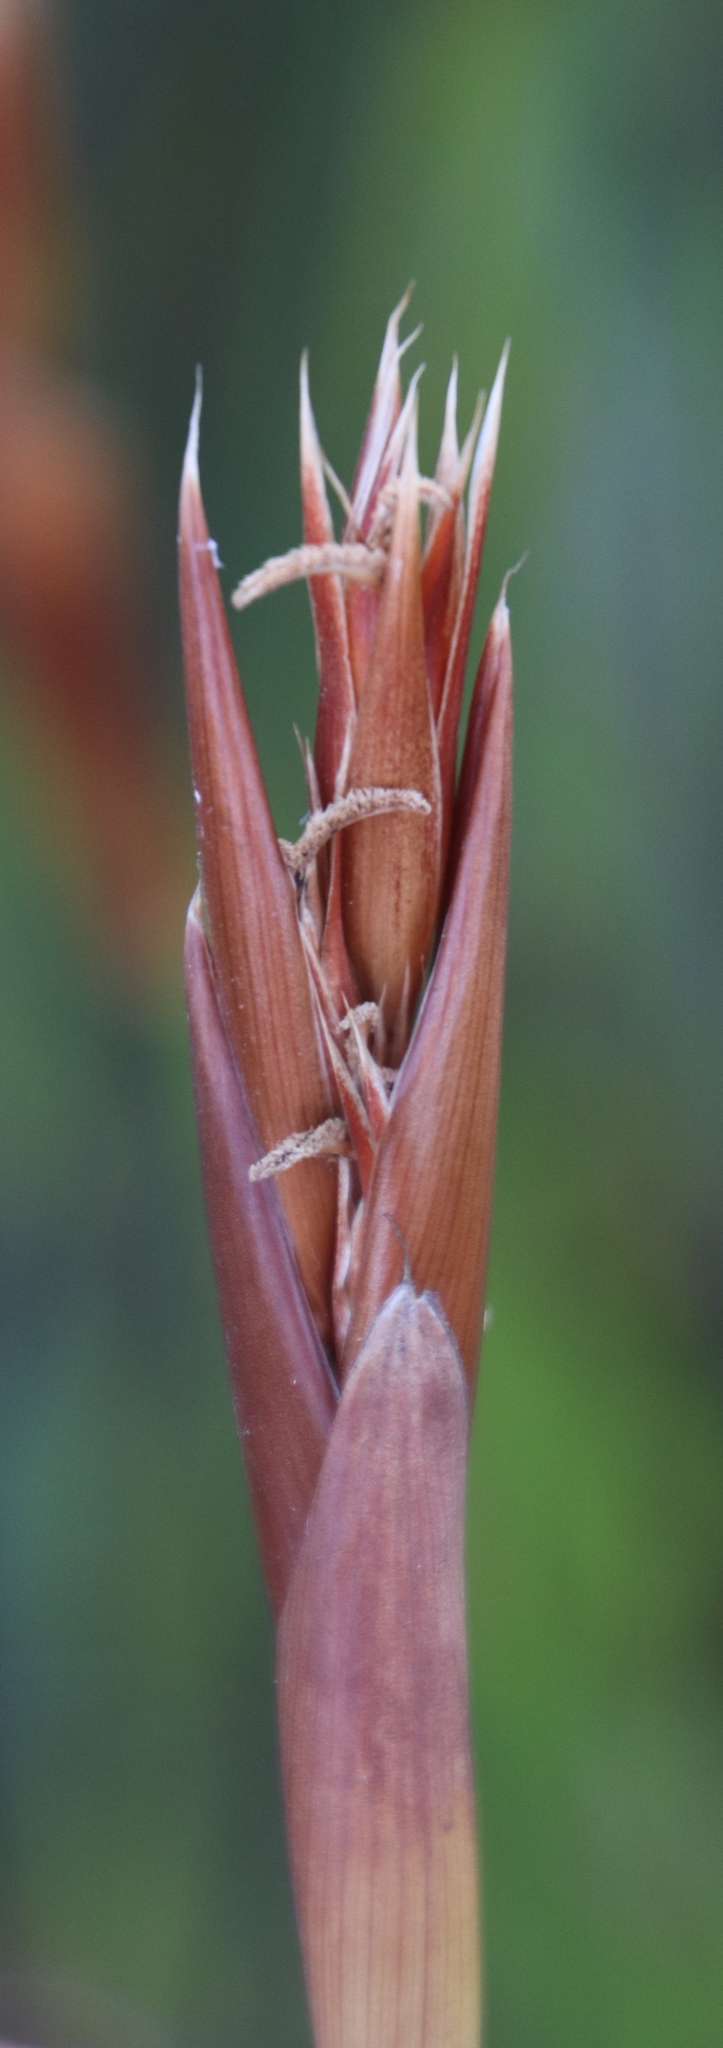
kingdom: Plantae
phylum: Tracheophyta
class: Liliopsida
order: Poales
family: Restionaceae
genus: Ceratocaryum
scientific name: Ceratocaryum caespitosum
